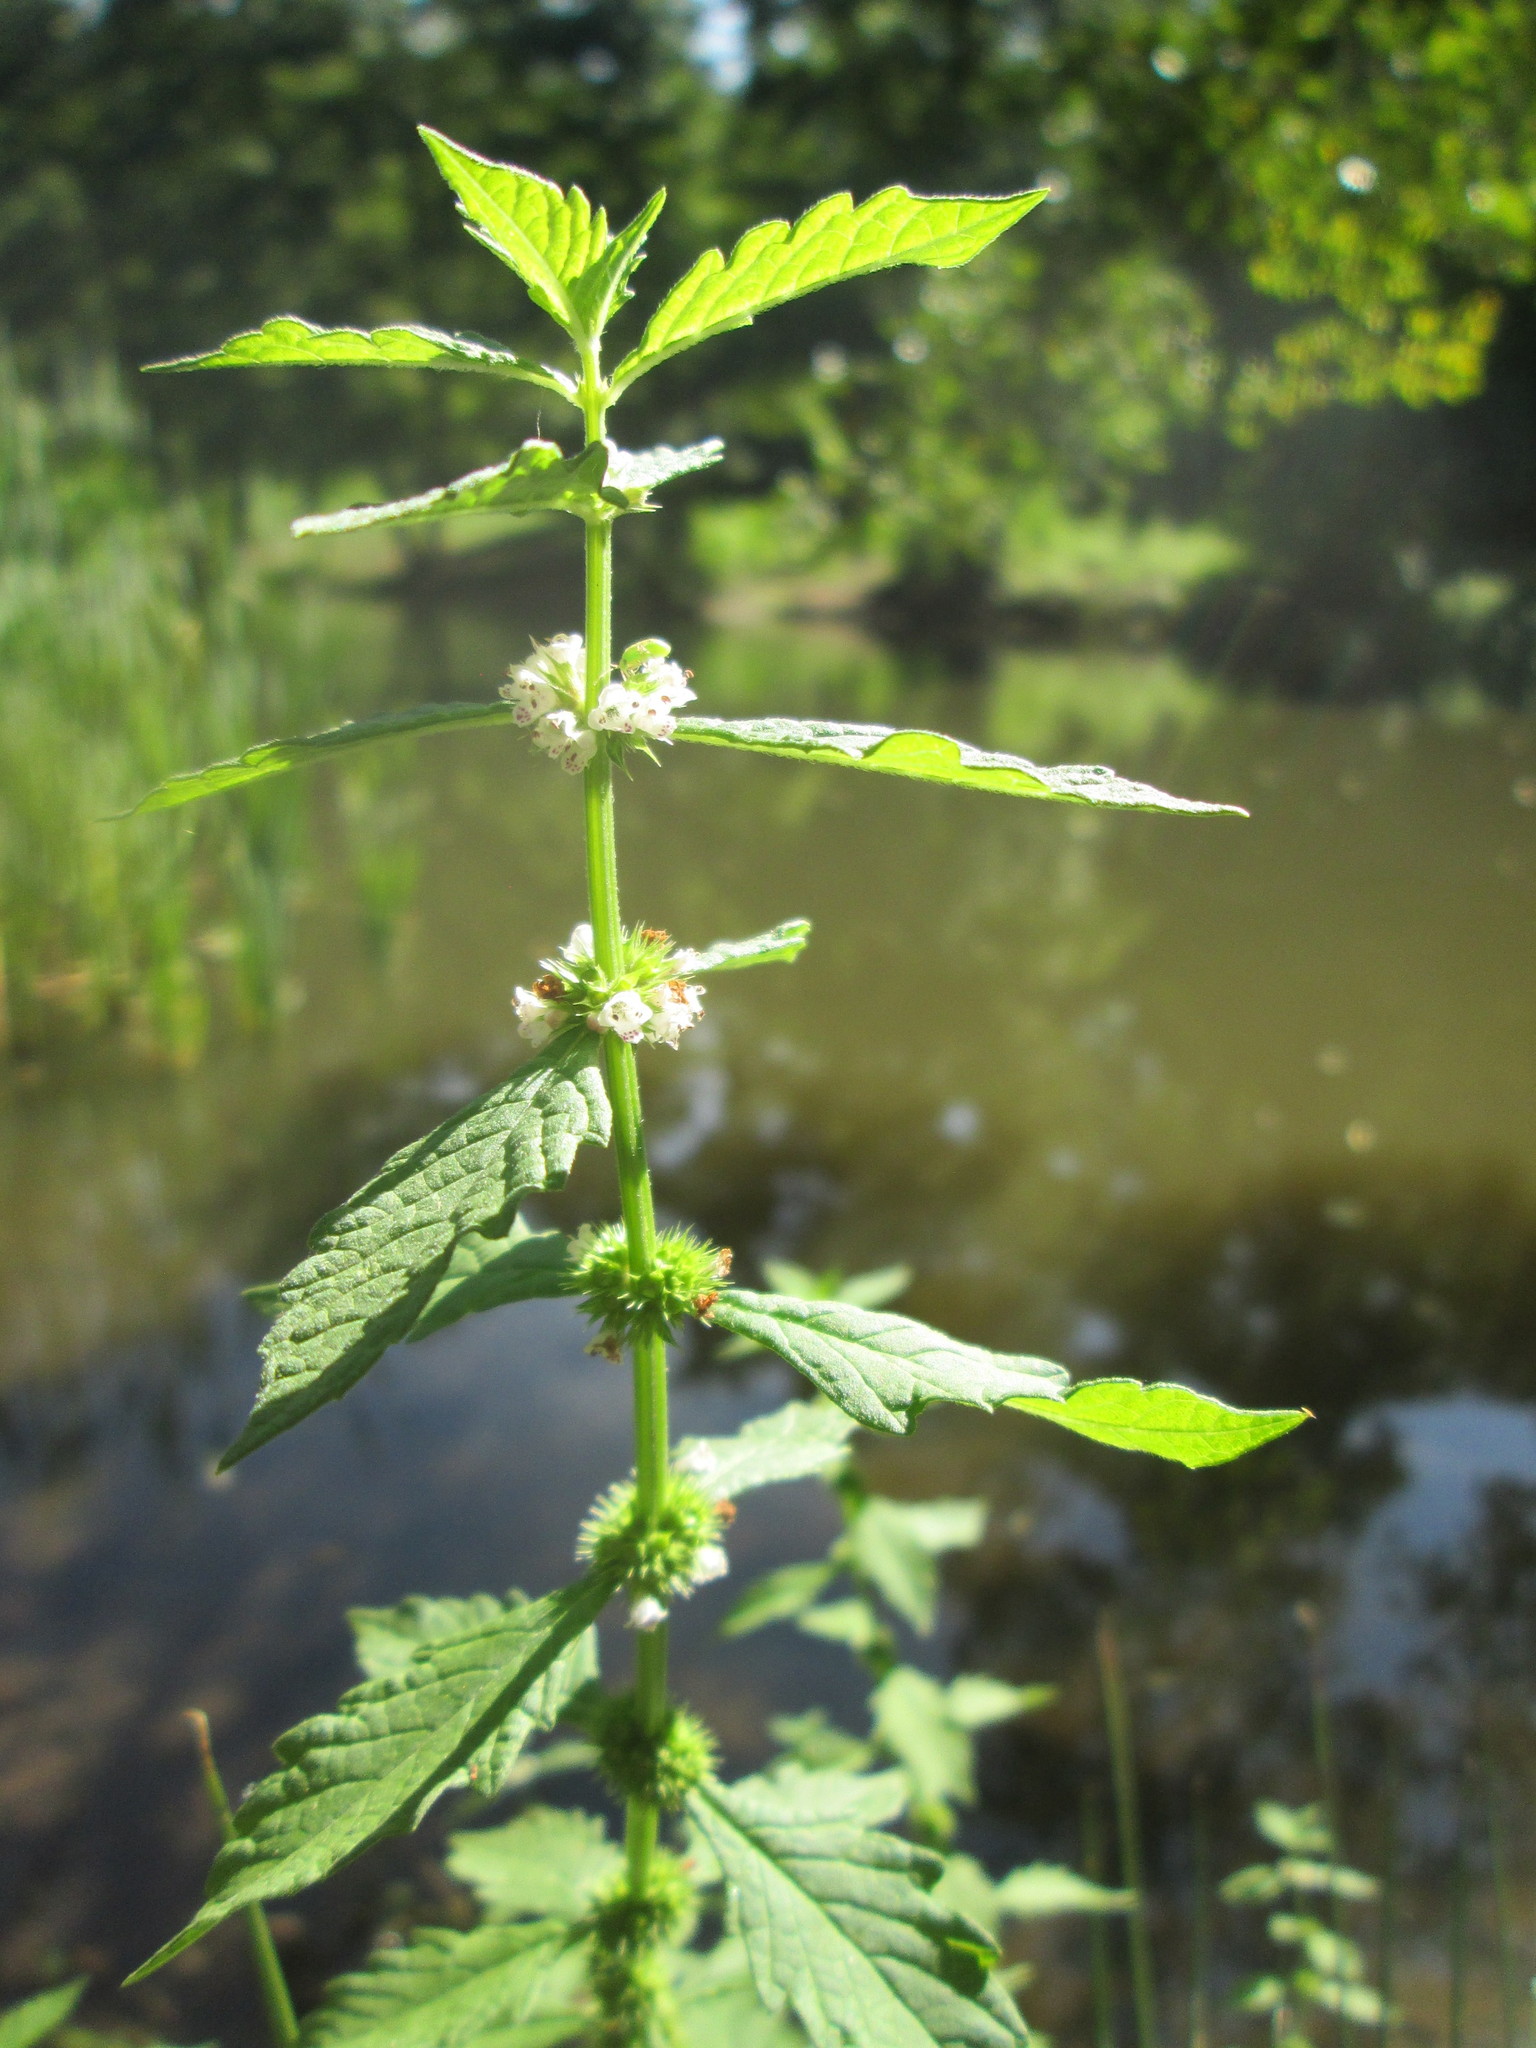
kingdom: Plantae
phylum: Tracheophyta
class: Magnoliopsida
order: Lamiales
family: Lamiaceae
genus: Lycopus
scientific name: Lycopus europaeus
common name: European bugleweed
